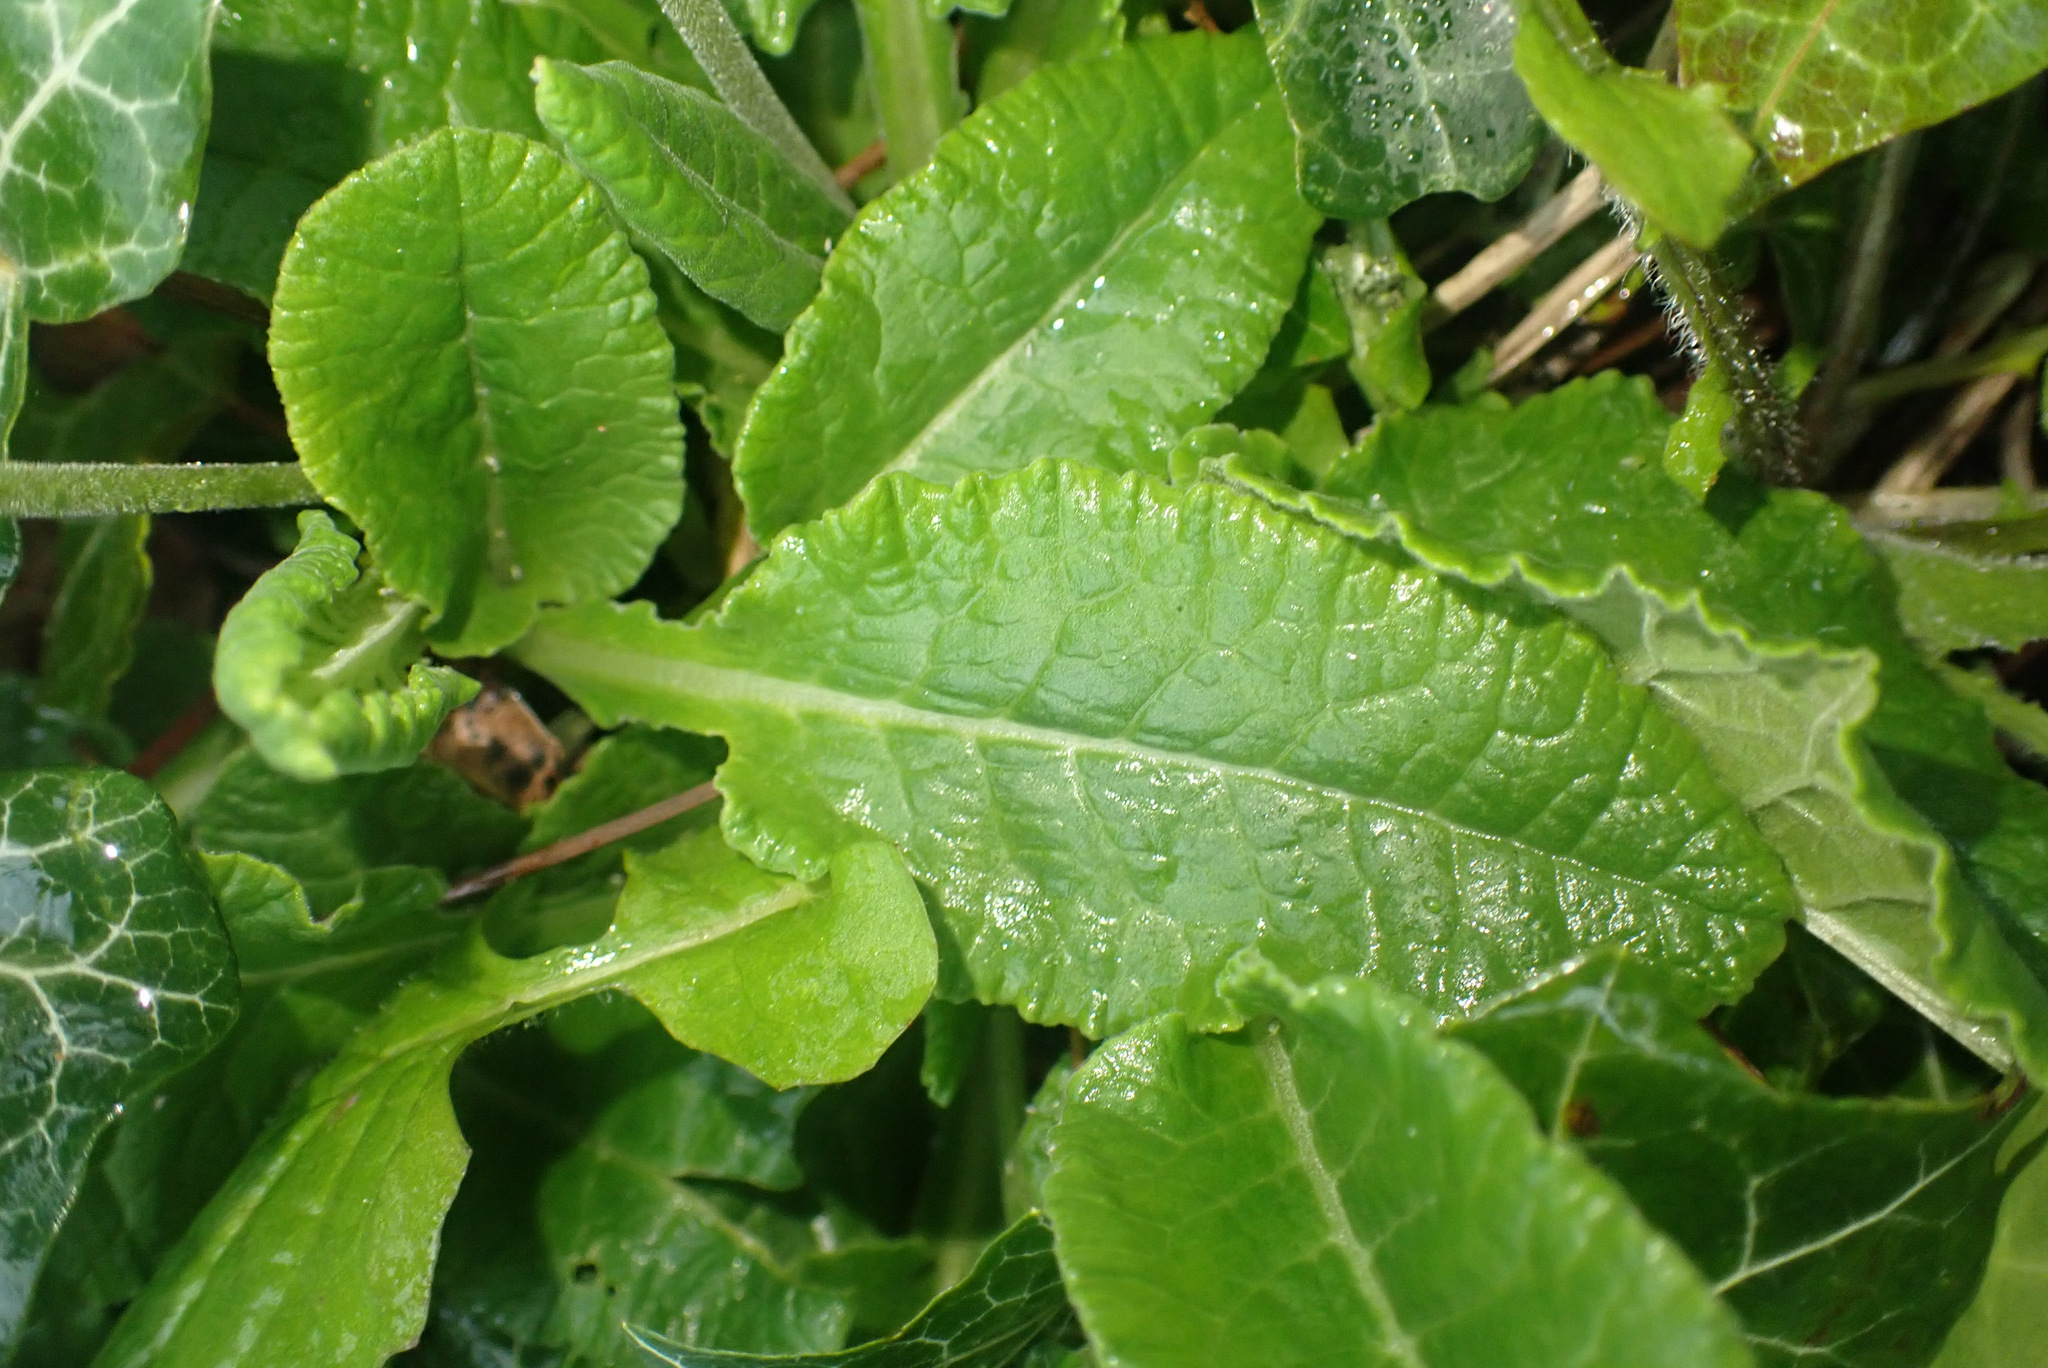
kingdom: Plantae
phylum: Tracheophyta
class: Magnoliopsida
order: Ericales
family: Primulaceae
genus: Primula
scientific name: Primula veris
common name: Cowslip
